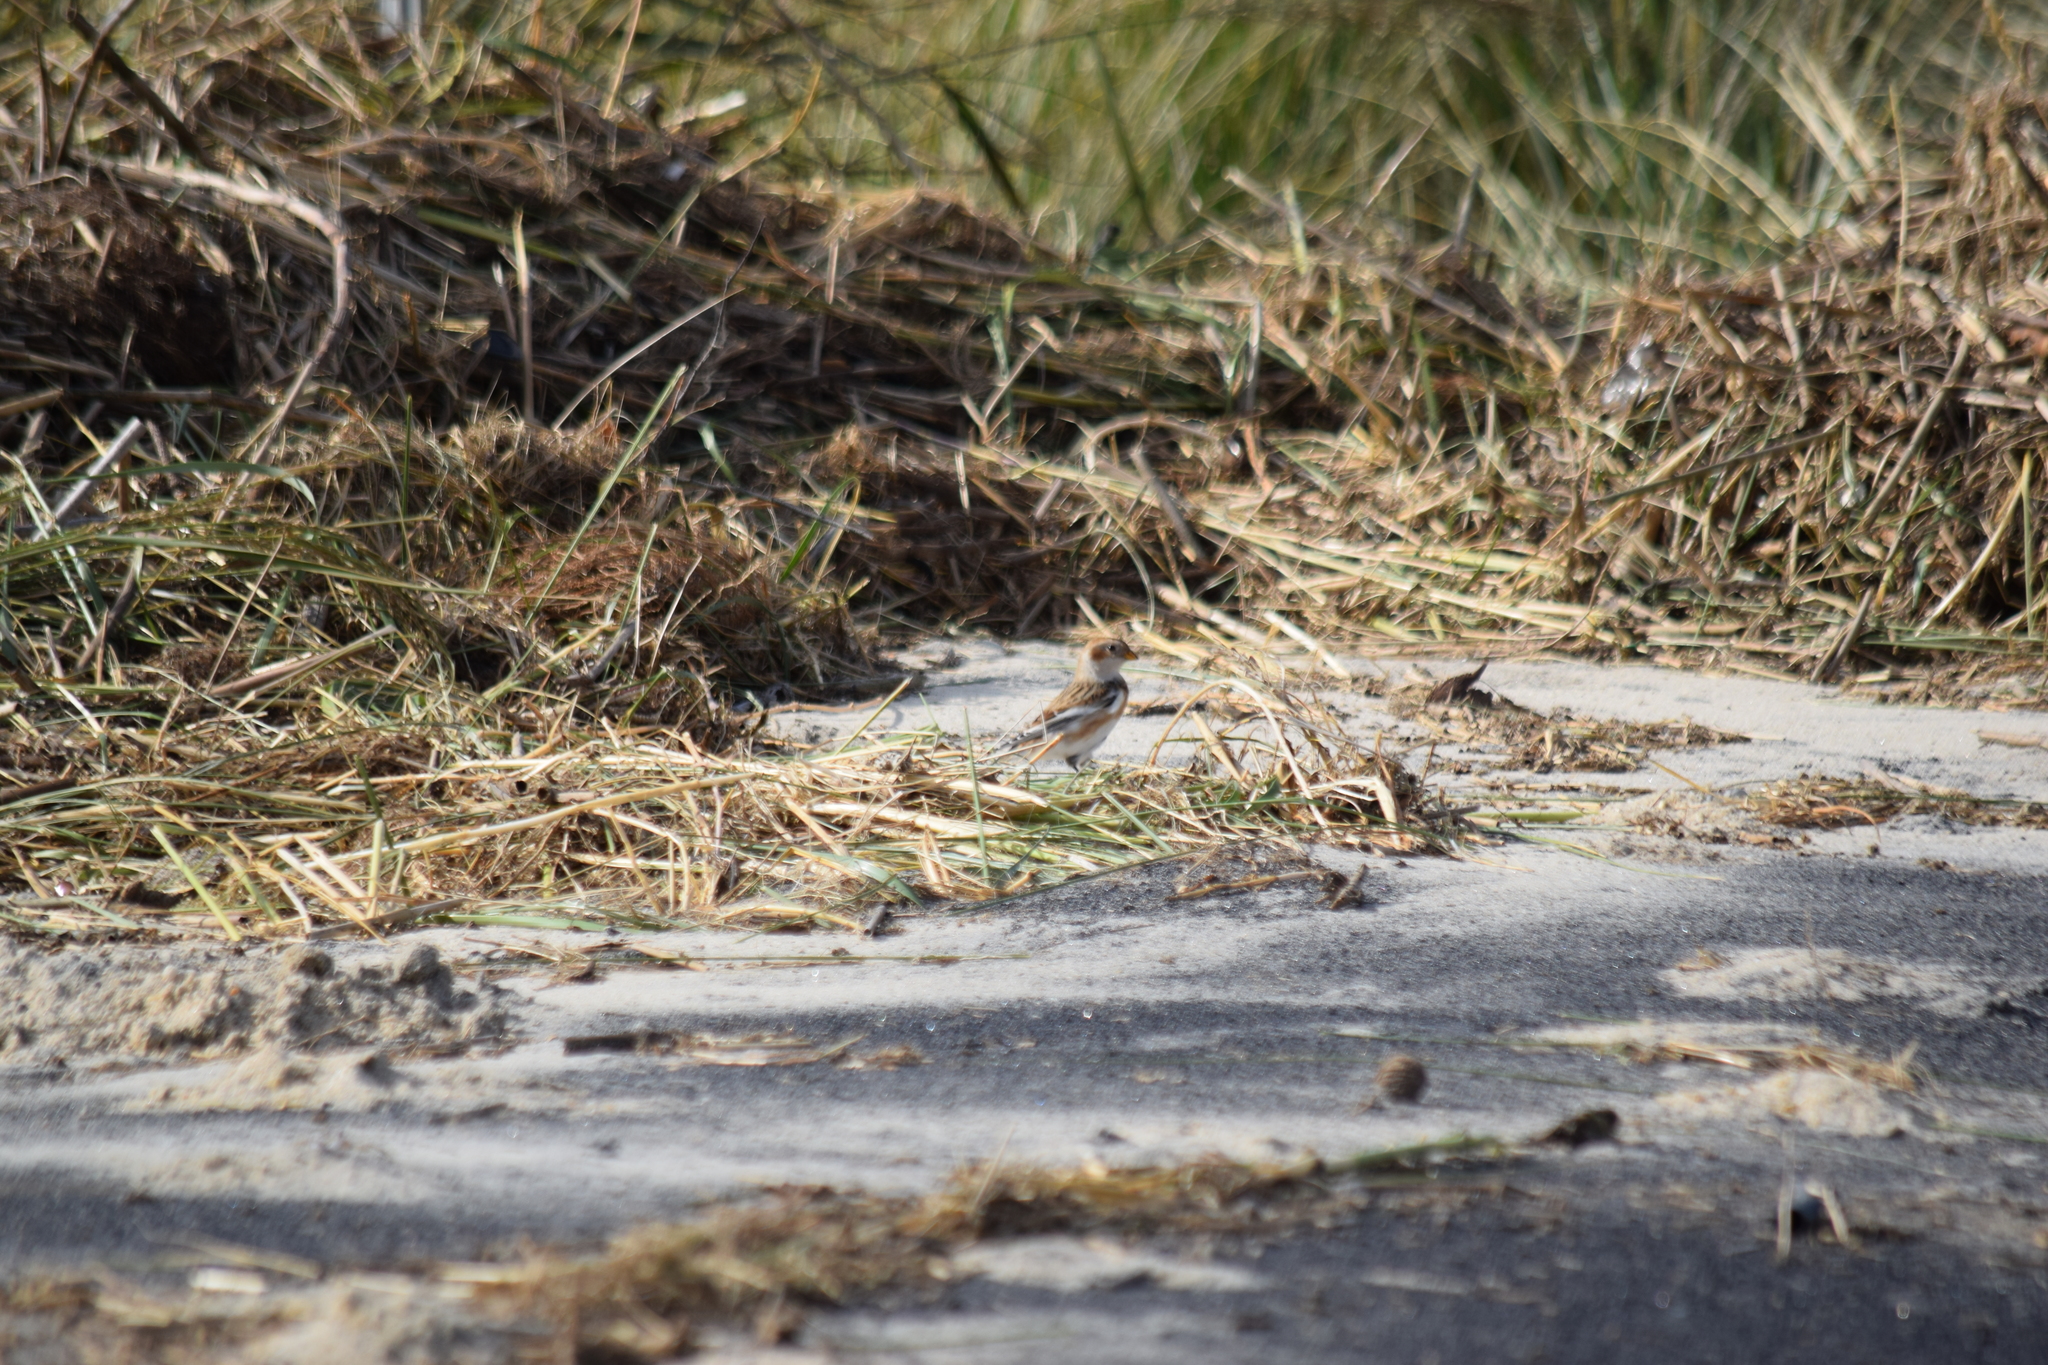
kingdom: Animalia
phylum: Chordata
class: Aves
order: Passeriformes
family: Calcariidae
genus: Plectrophenax
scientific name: Plectrophenax nivalis
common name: Snow bunting
